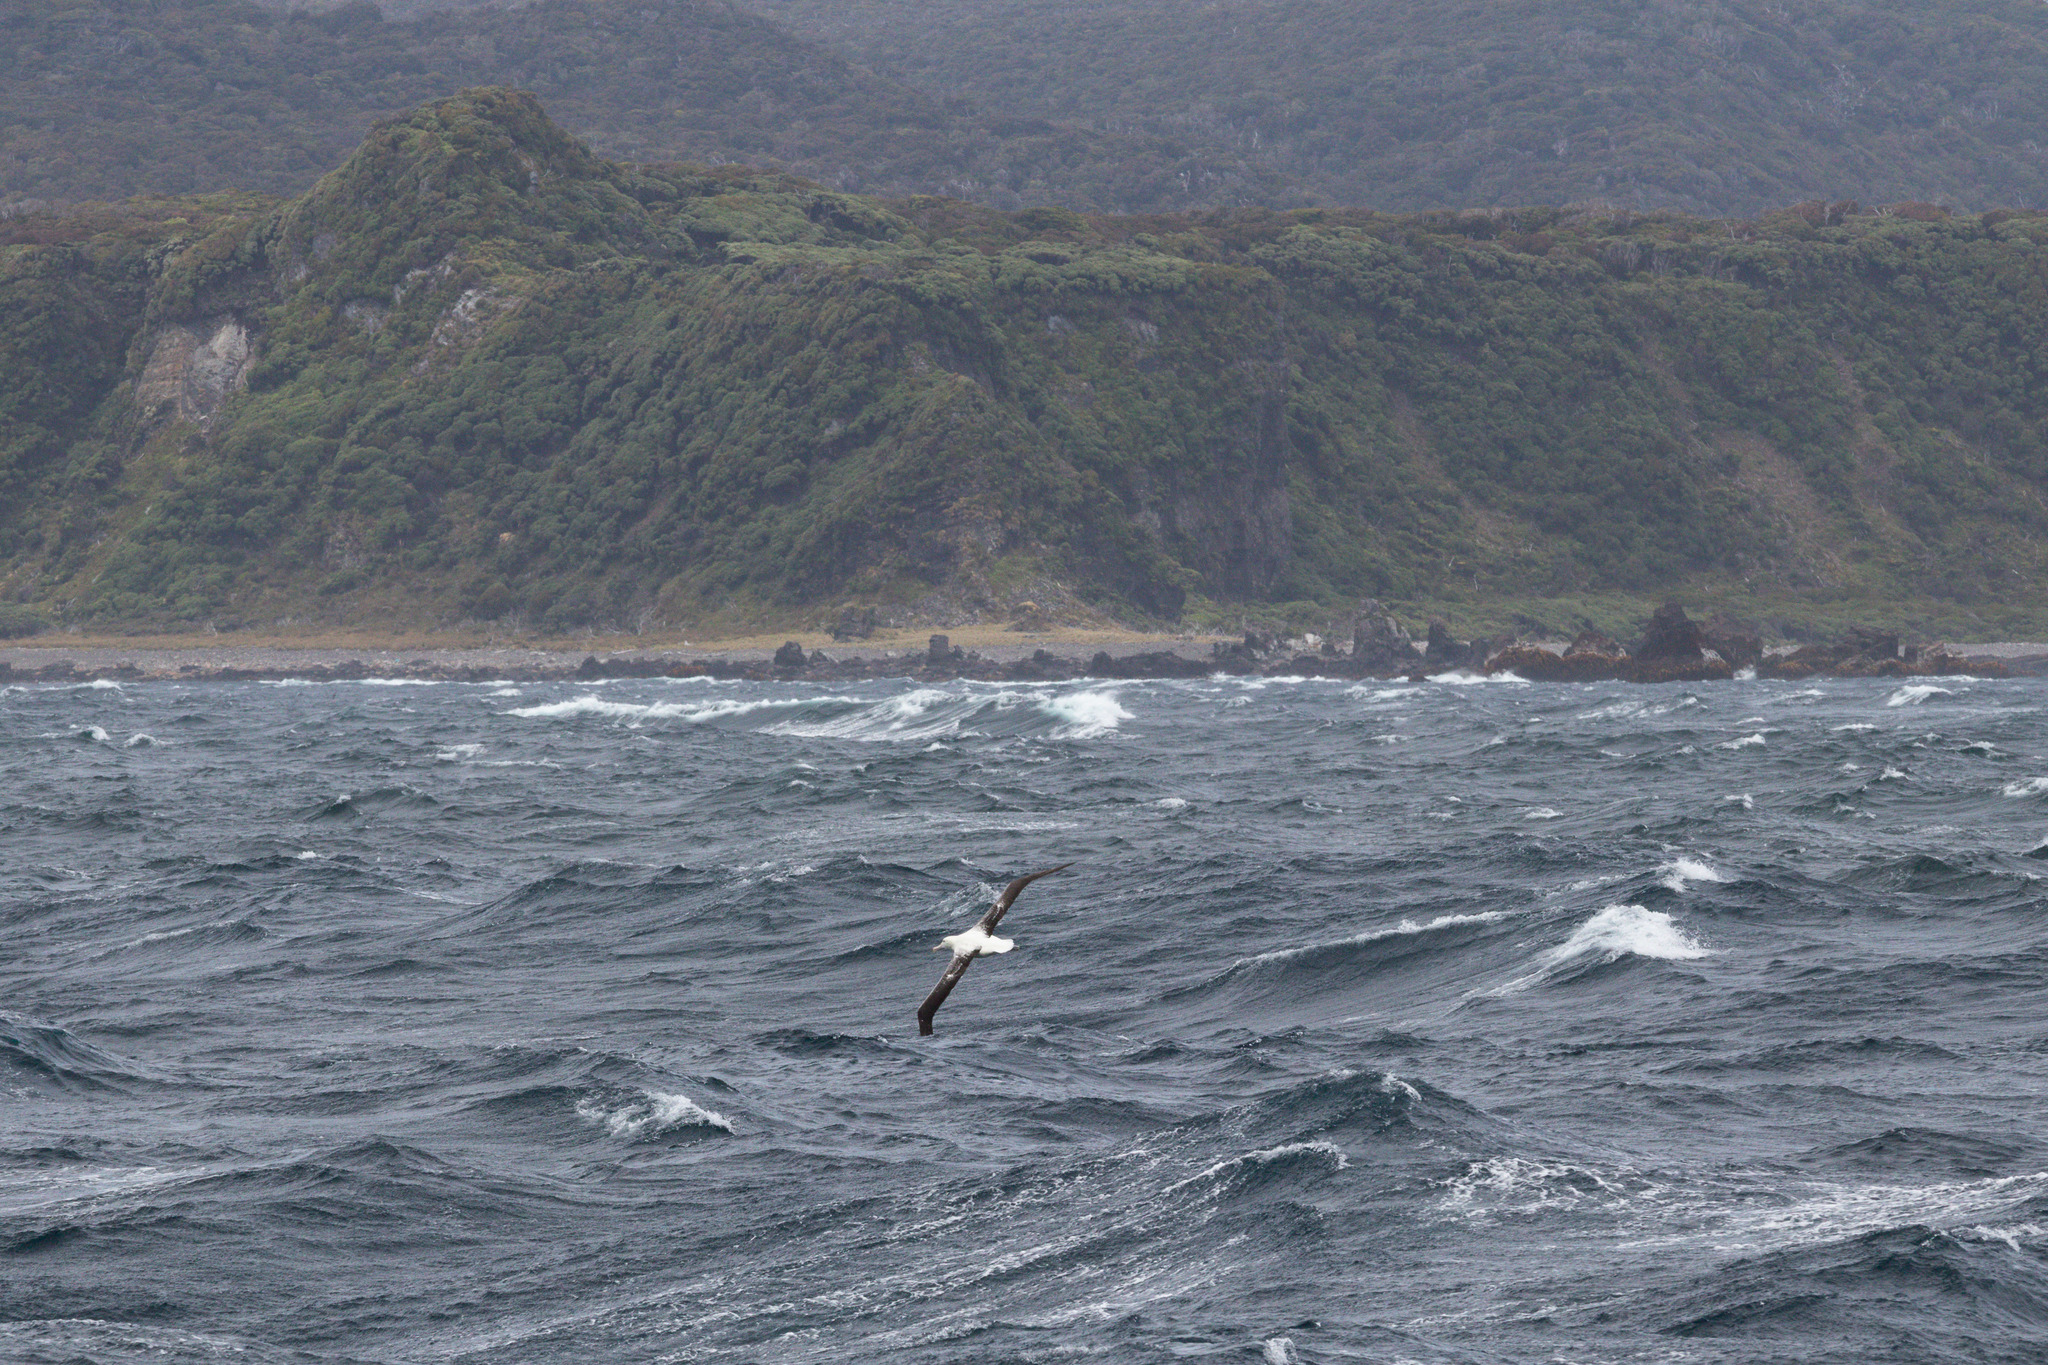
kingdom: Animalia
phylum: Chordata
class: Aves
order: Procellariiformes
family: Diomedeidae
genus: Diomedea
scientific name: Diomedea epomophora
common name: Southern royal albatross
